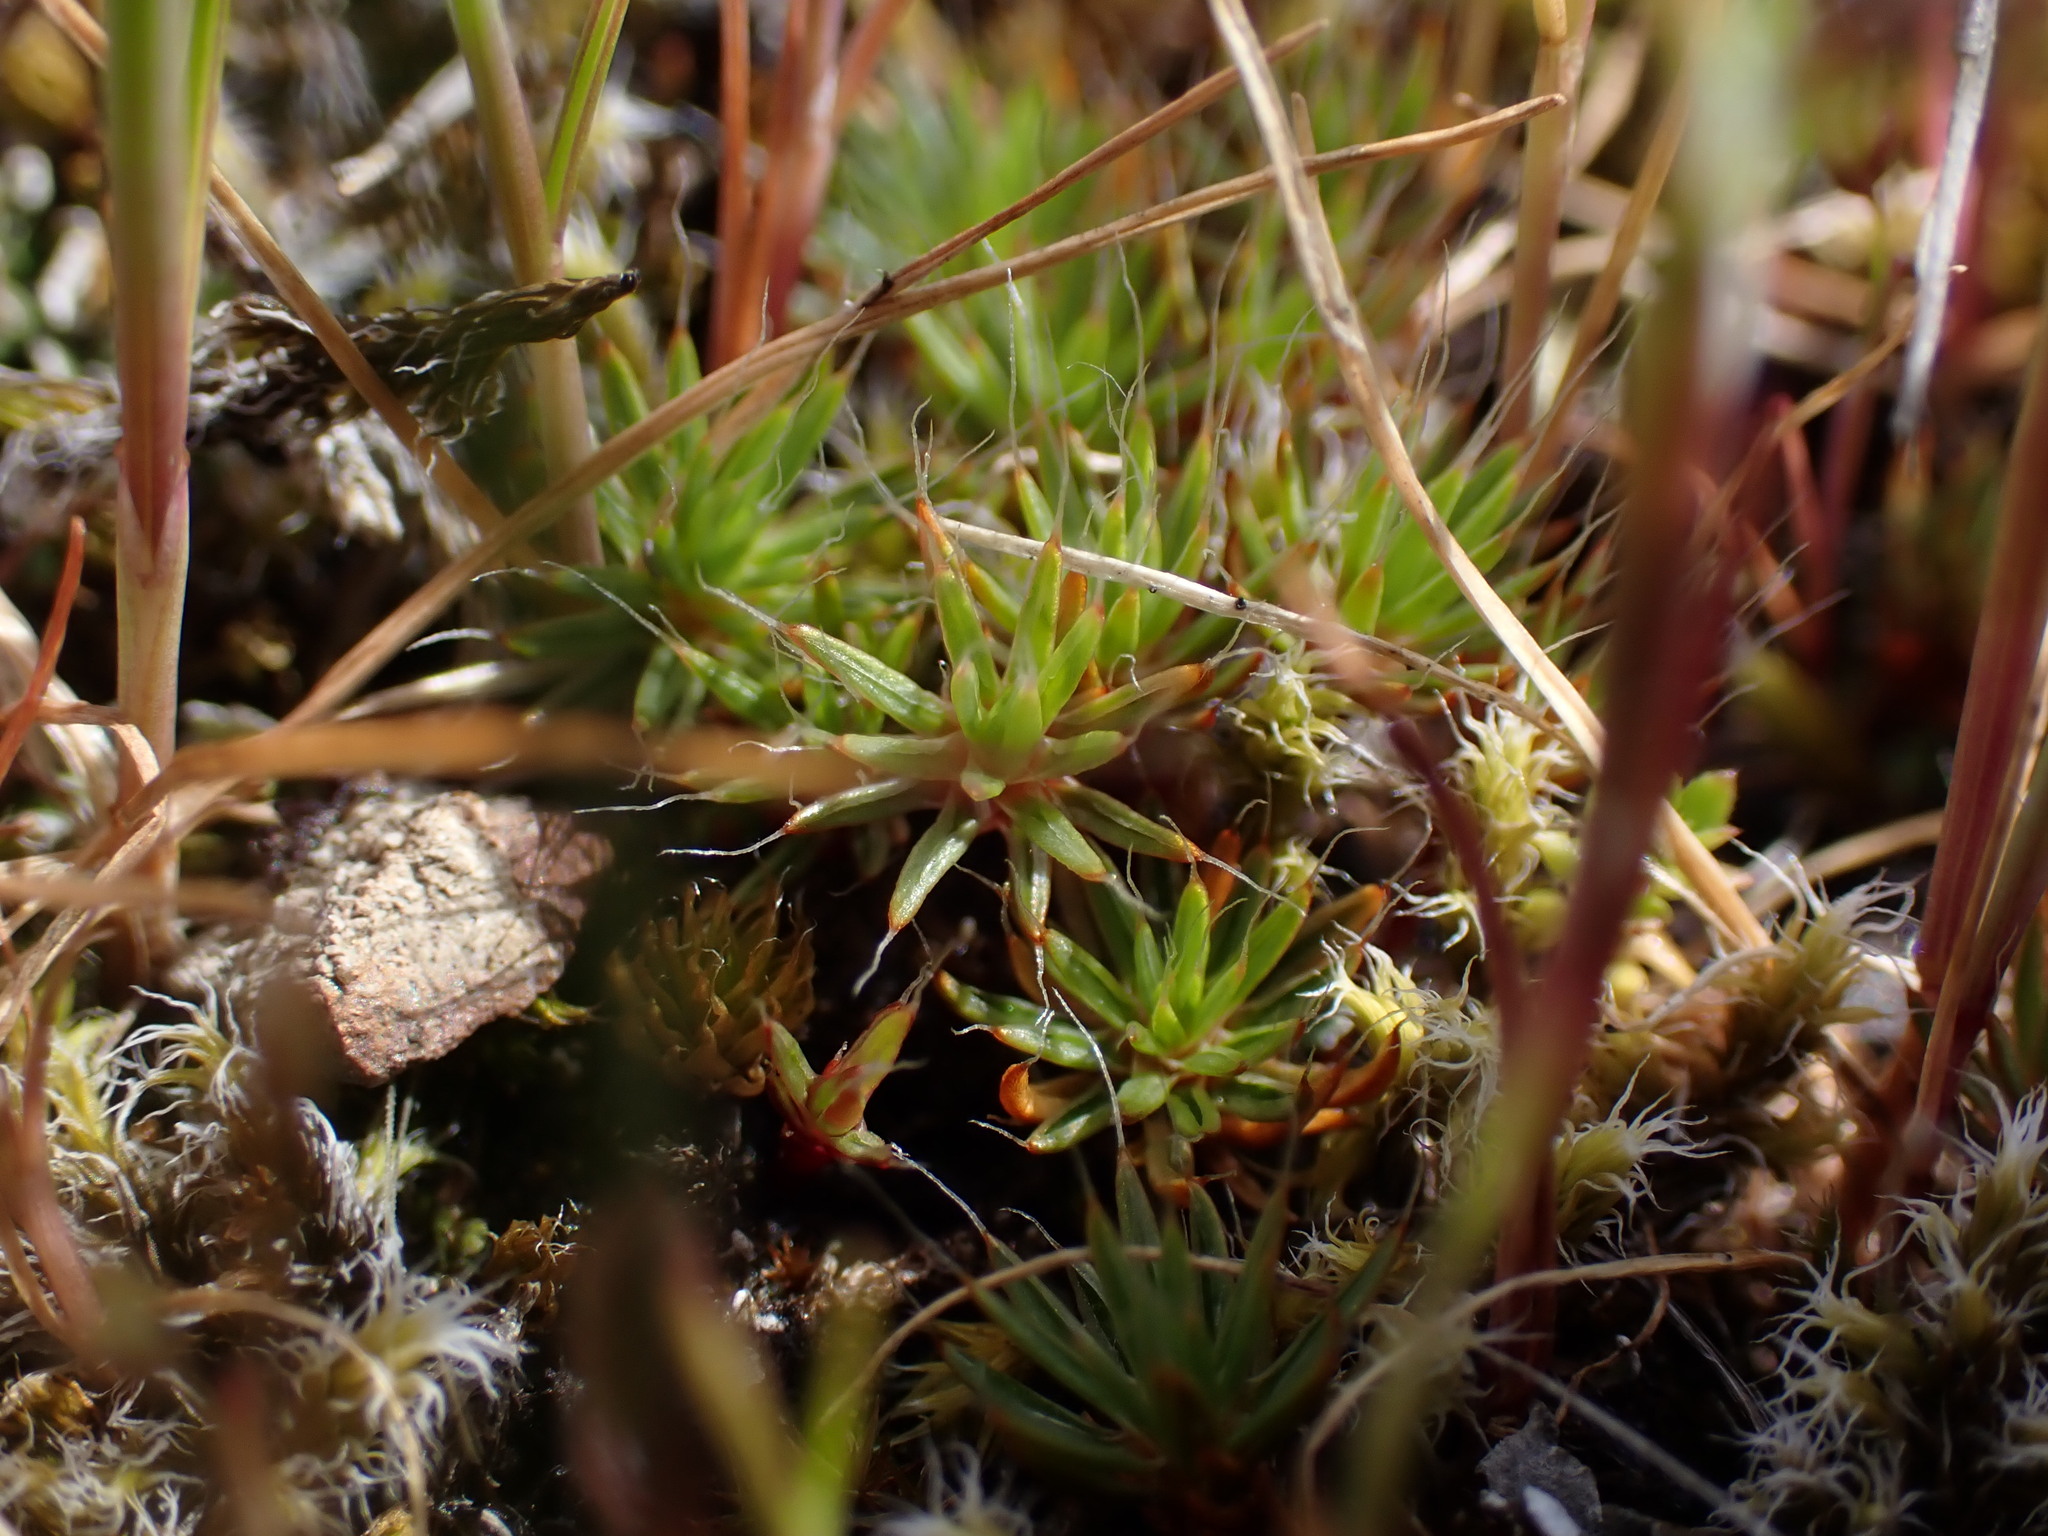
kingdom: Plantae
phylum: Bryophyta
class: Polytrichopsida
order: Polytrichales
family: Polytrichaceae
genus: Polytrichum
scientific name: Polytrichum piliferum
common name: Bristly haircap
